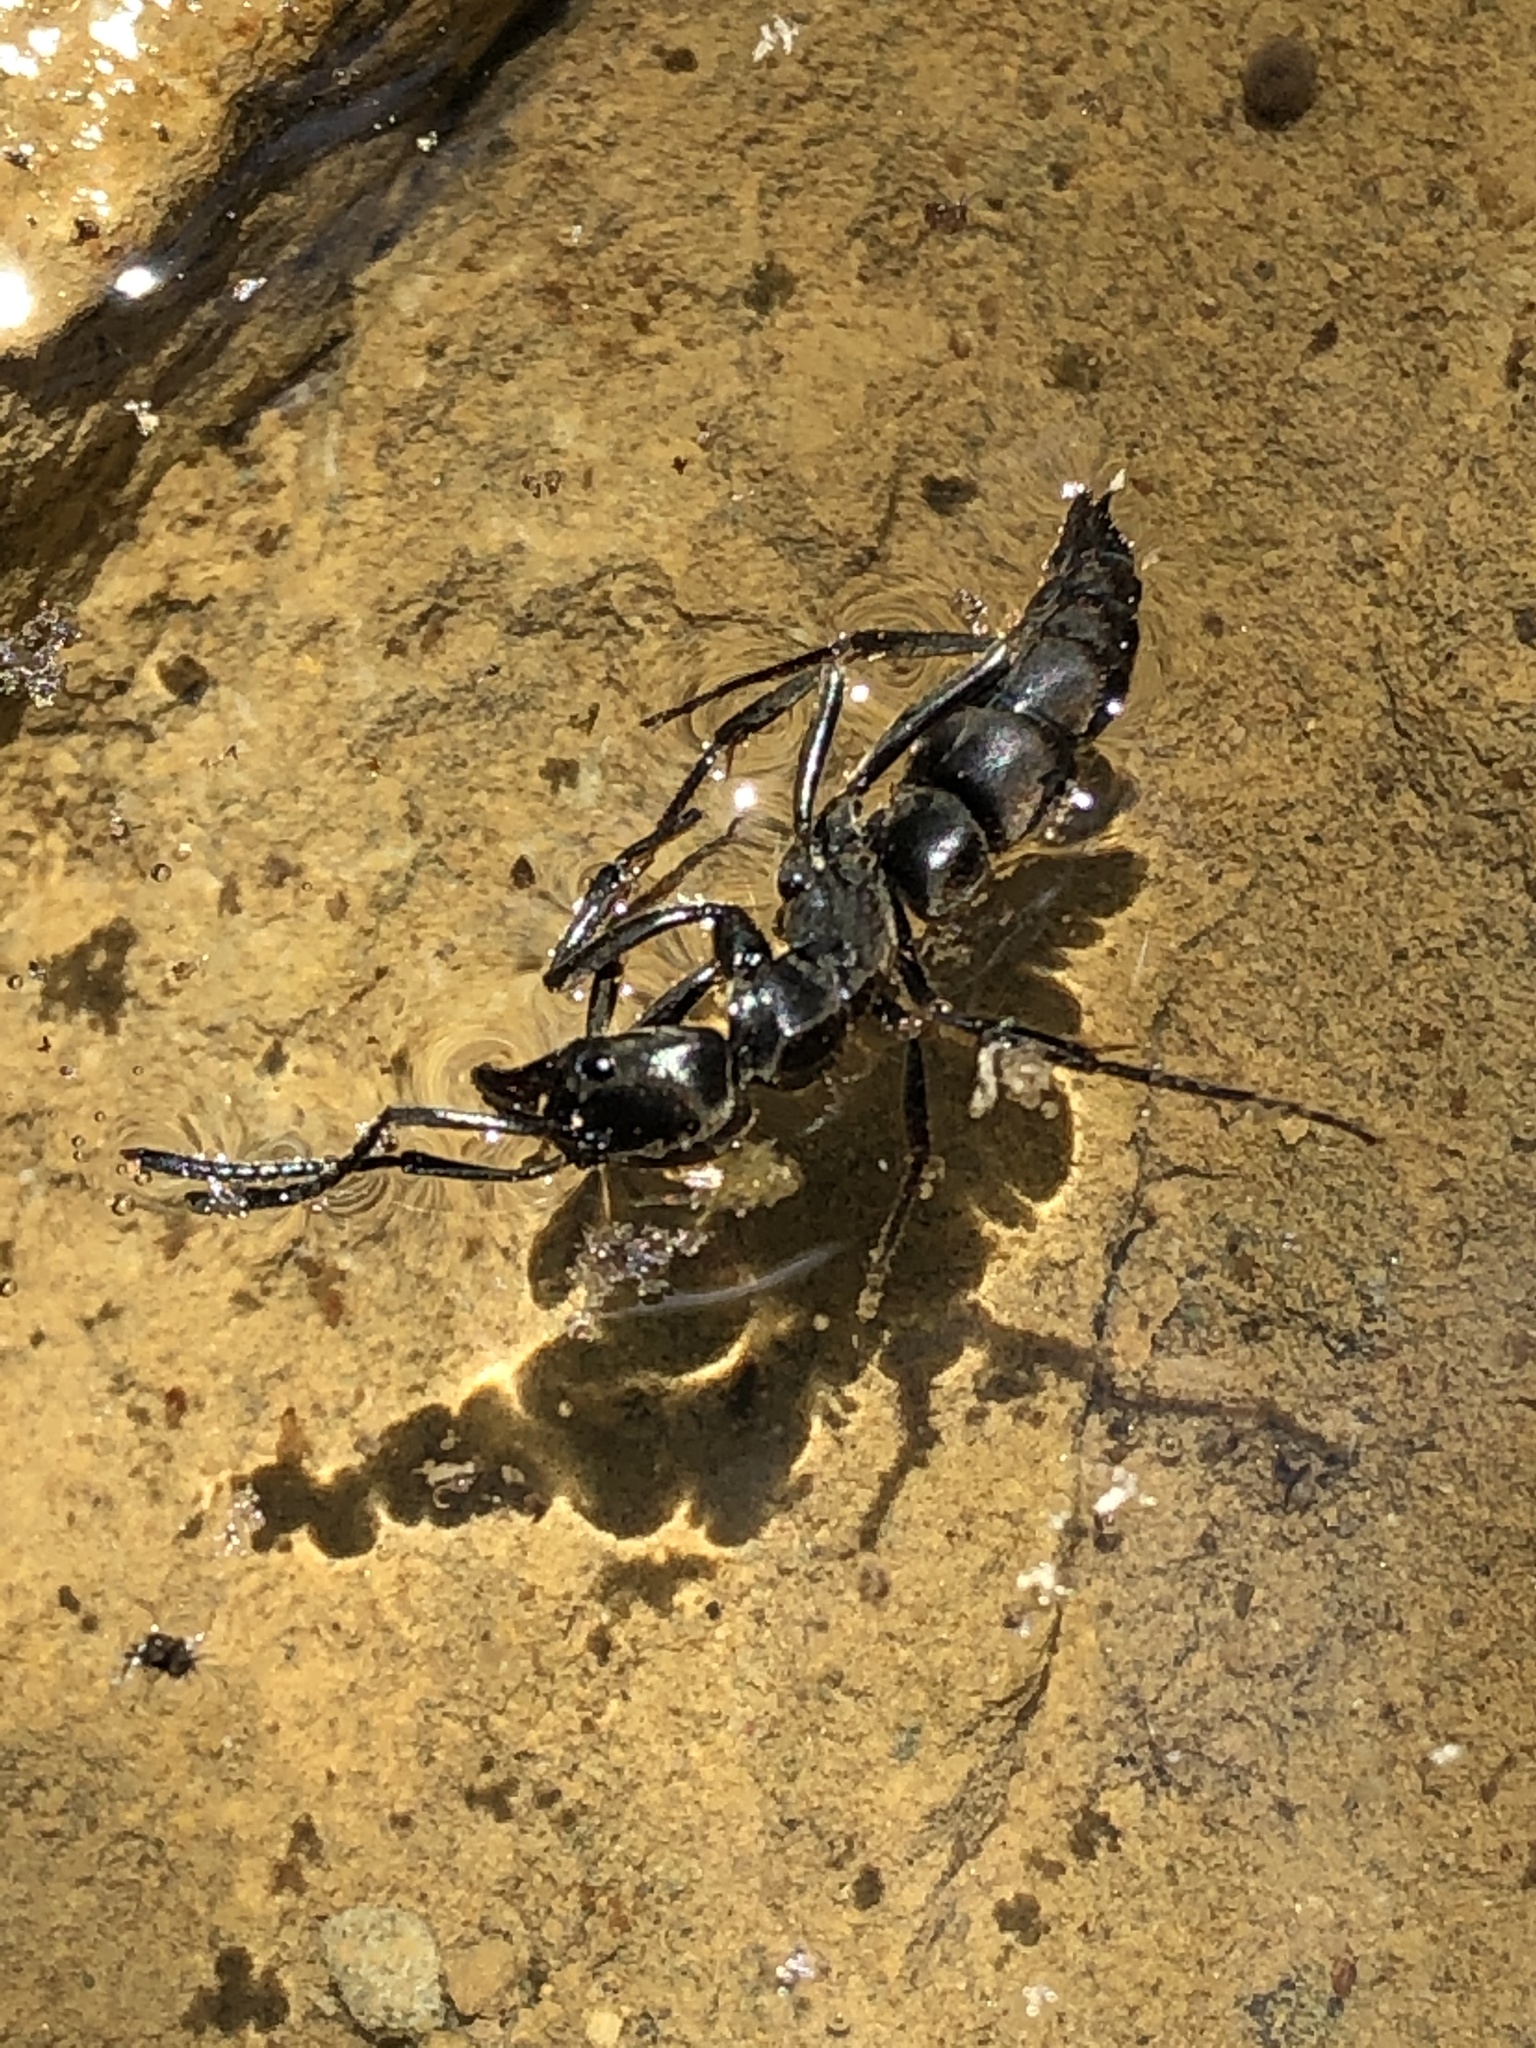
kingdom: Animalia
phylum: Arthropoda
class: Insecta
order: Hymenoptera
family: Formicidae
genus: Pachycondyla
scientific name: Pachycondyla crassinoda
